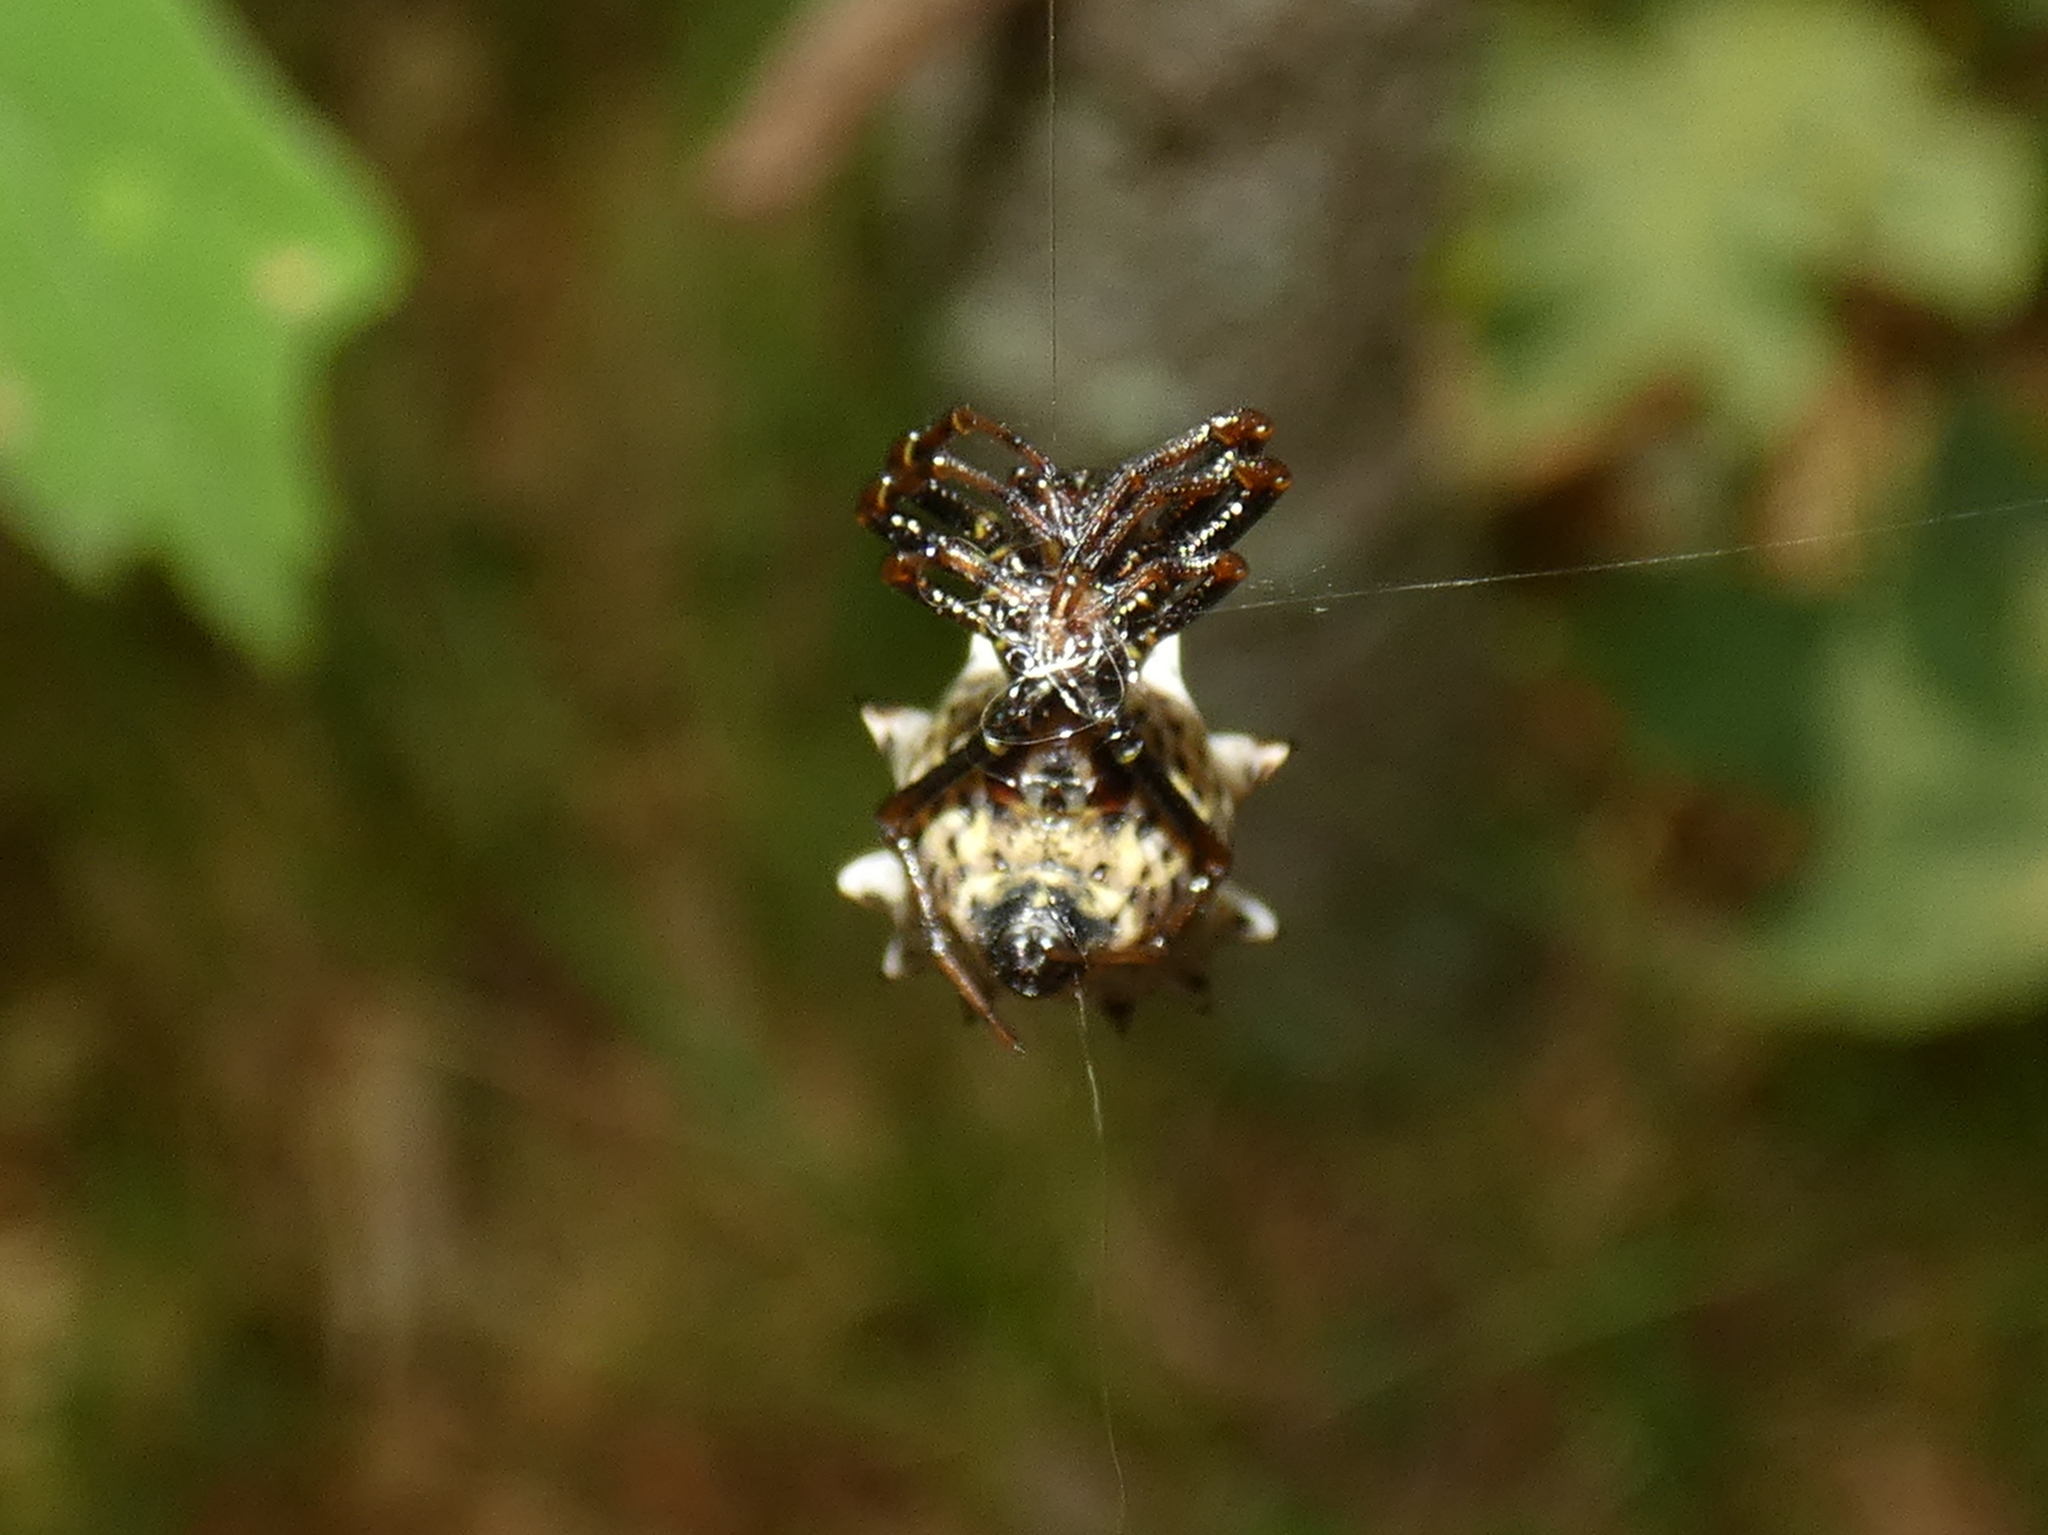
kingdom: Animalia
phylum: Arthropoda
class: Arachnida
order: Araneae
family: Araneidae
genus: Micrathena
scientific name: Micrathena gracilis
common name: Orb weavers
